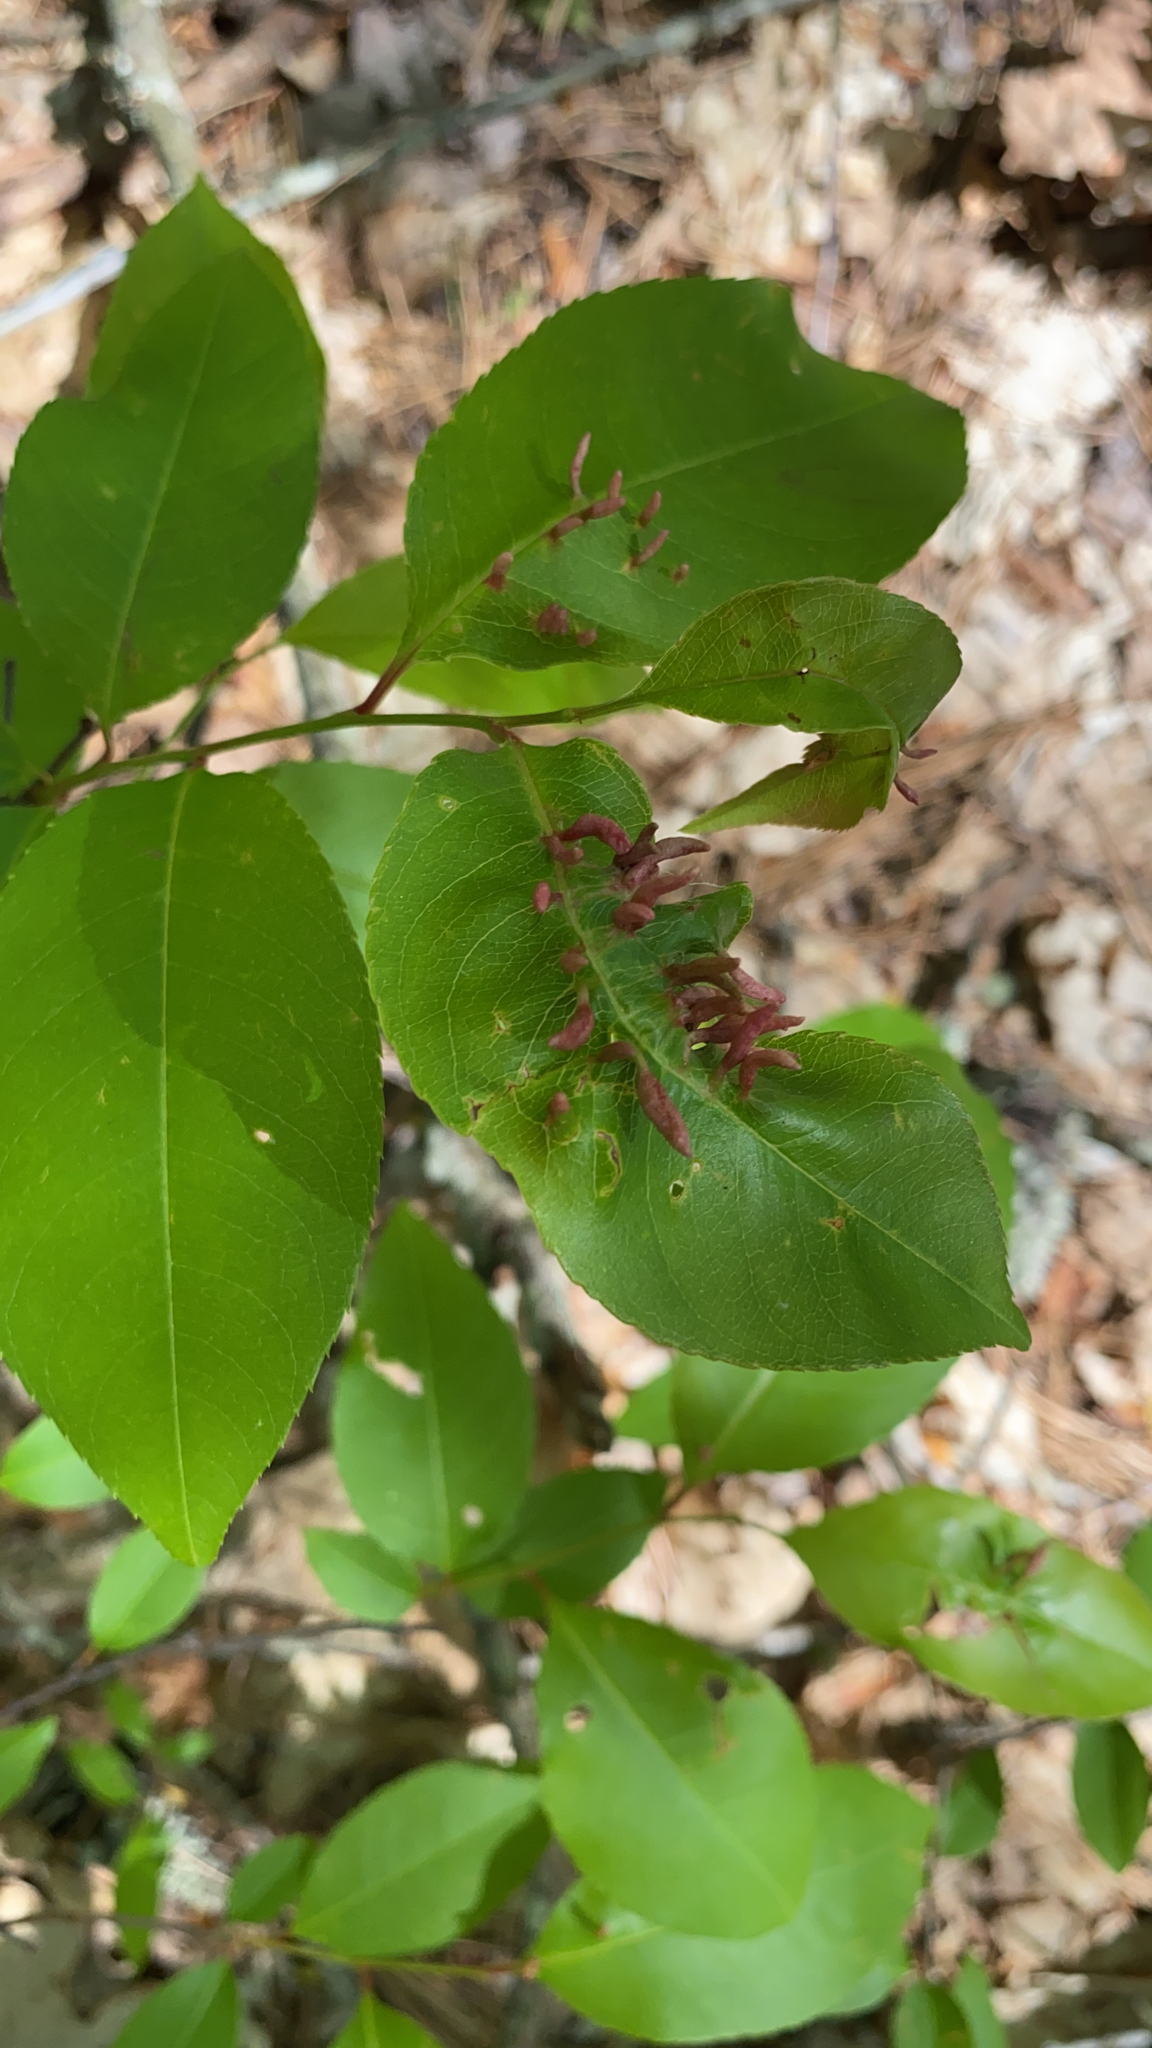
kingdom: Animalia
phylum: Arthropoda
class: Arachnida
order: Trombidiformes
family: Eriophyidae
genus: Eriophyes
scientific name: Eriophyes
